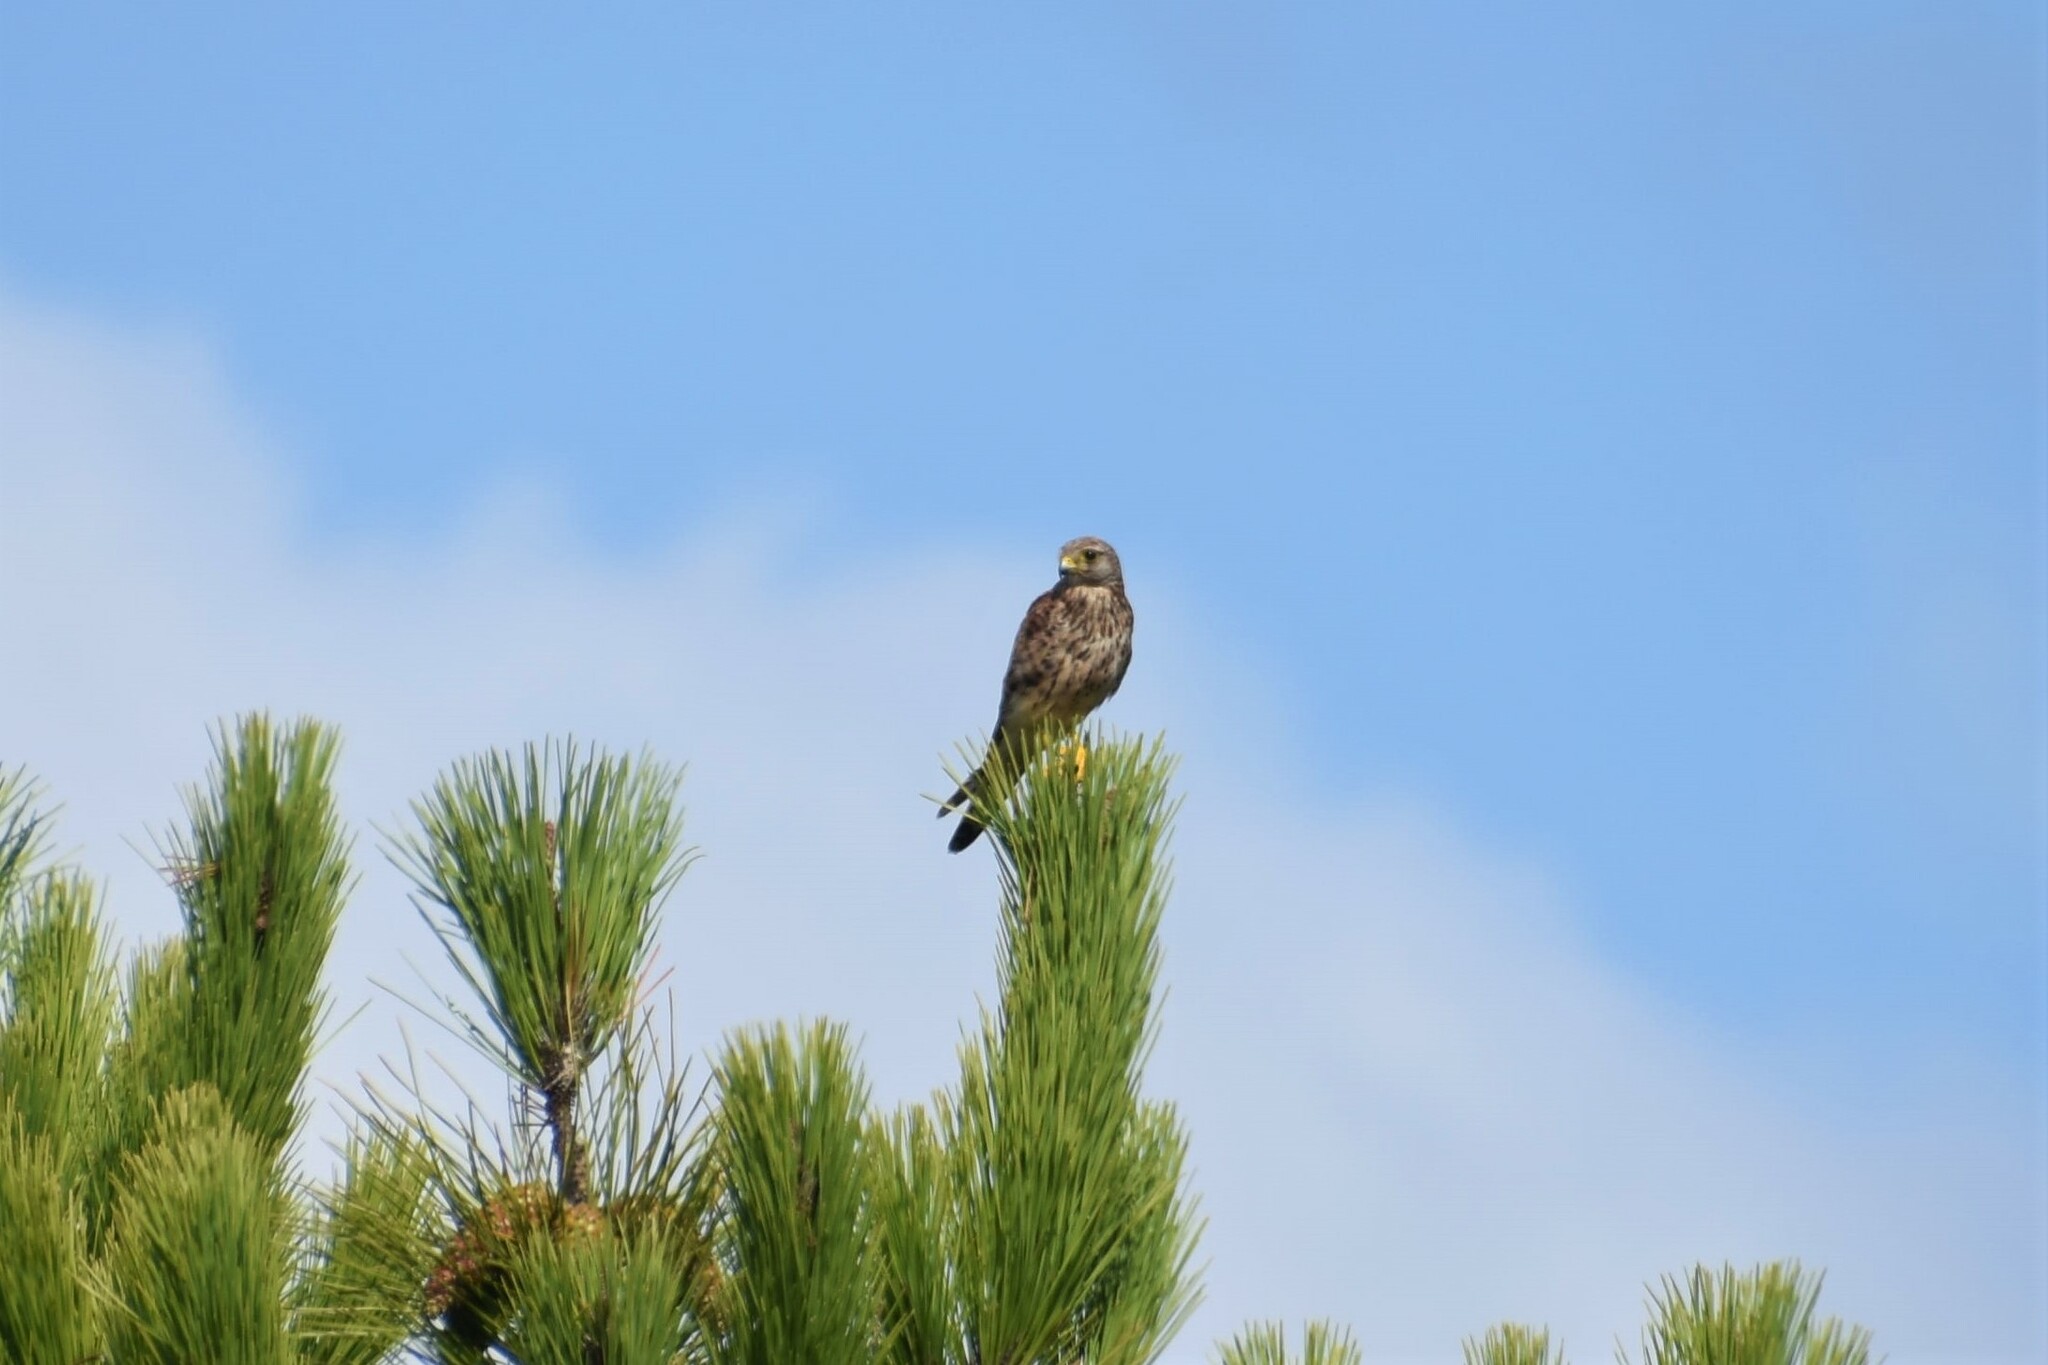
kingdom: Animalia
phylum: Chordata
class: Aves
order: Falconiformes
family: Falconidae
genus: Falco
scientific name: Falco tinnunculus
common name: Common kestrel
